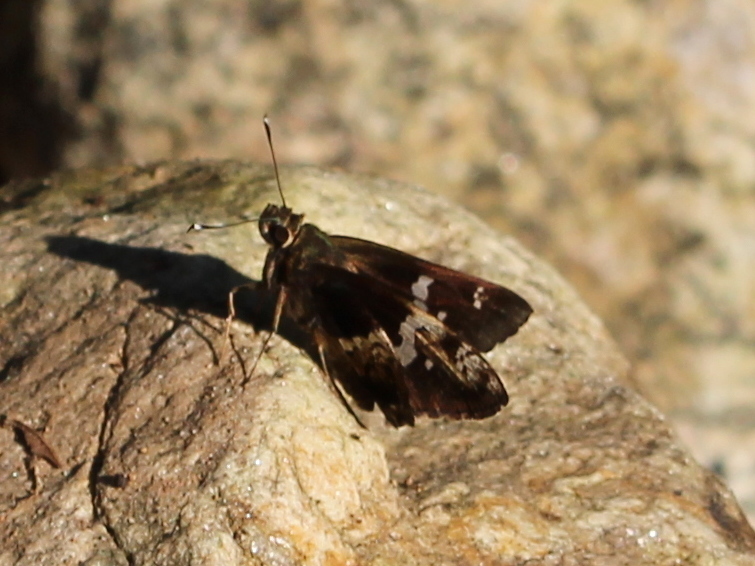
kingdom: Animalia
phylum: Arthropoda
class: Insecta
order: Lepidoptera
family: Hesperiidae
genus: Hyarotis
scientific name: Hyarotis adrastus
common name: Tree flitter
